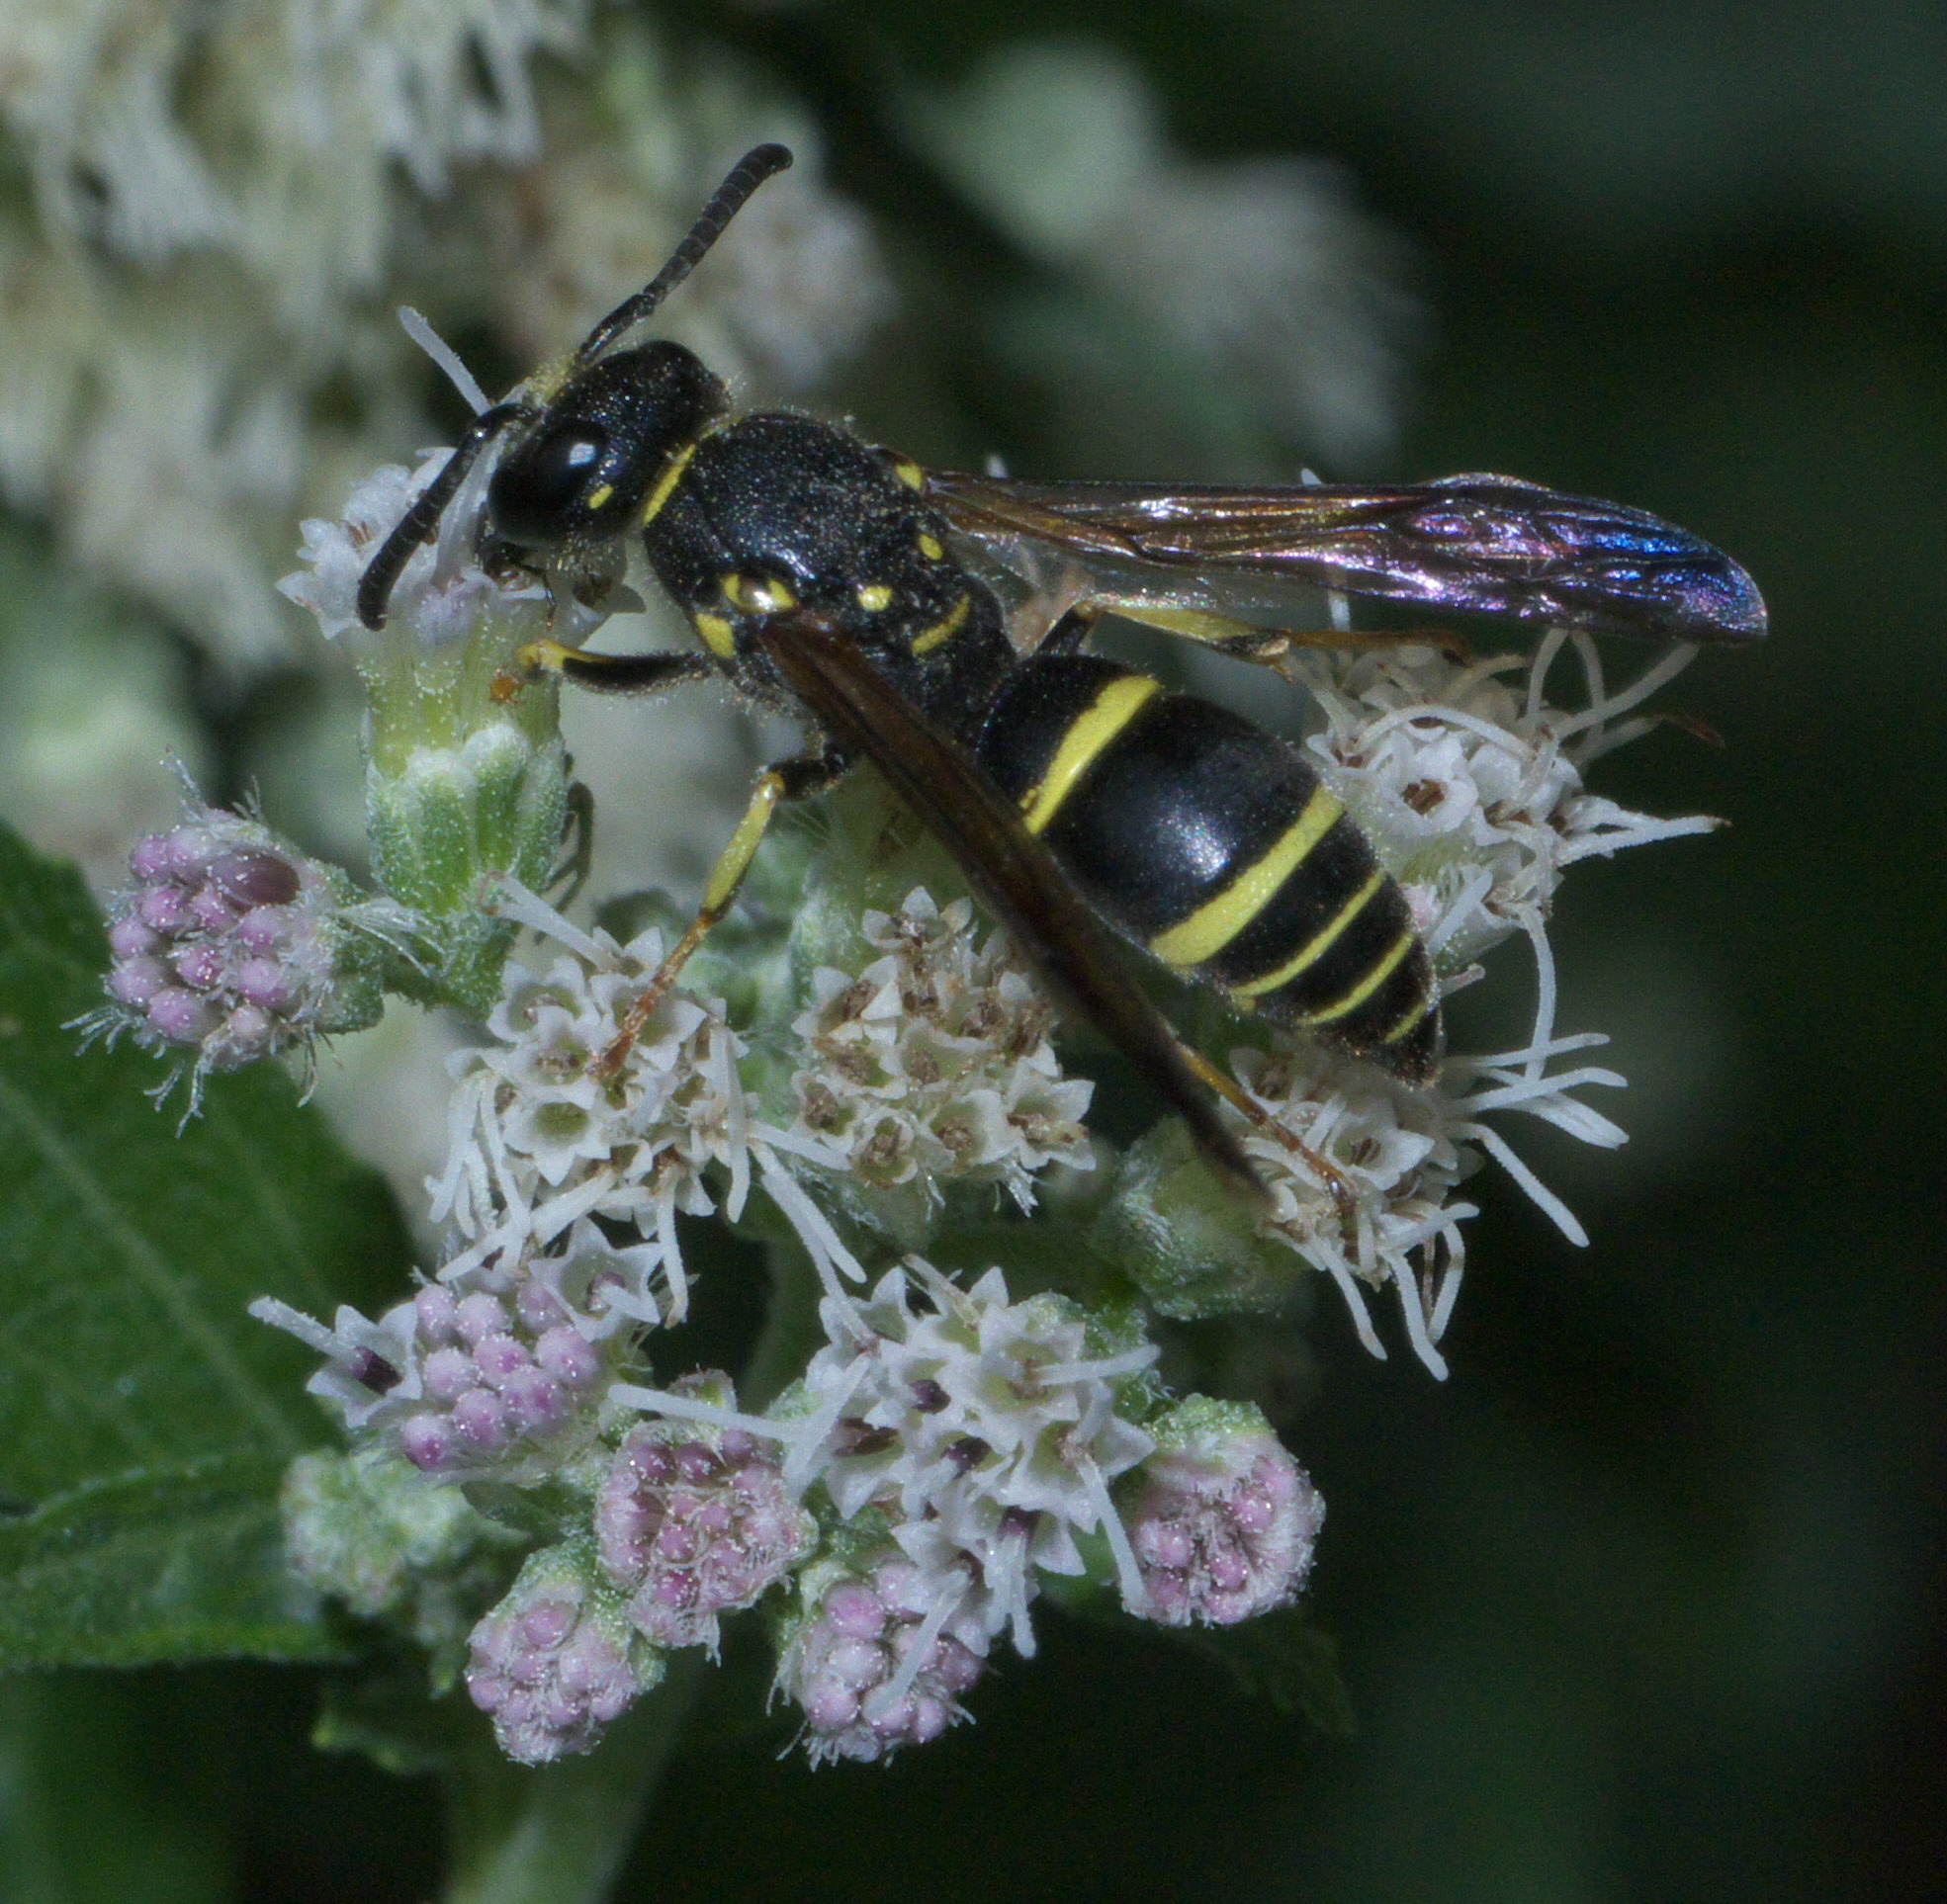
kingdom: Animalia
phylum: Arthropoda
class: Insecta
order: Hymenoptera
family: Vespidae
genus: Ancistrocerus
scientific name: Ancistrocerus adiabatus
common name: Bramble mason wasp
